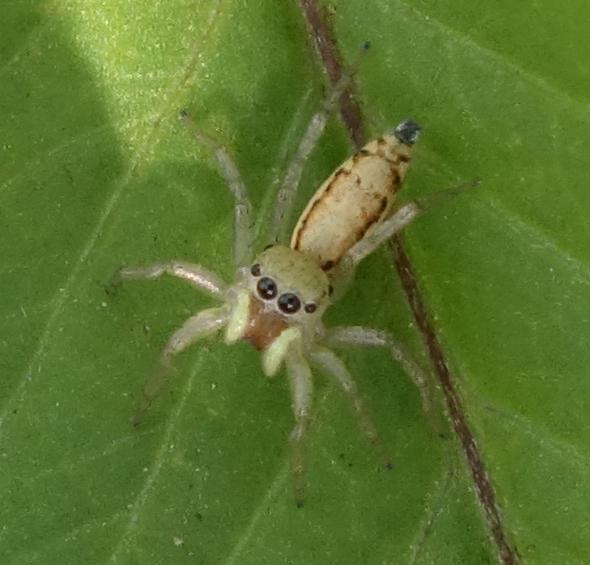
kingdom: Animalia
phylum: Arthropoda
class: Arachnida
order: Araneae
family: Salticidae
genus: Cosmophasis
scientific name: Cosmophasis lami
